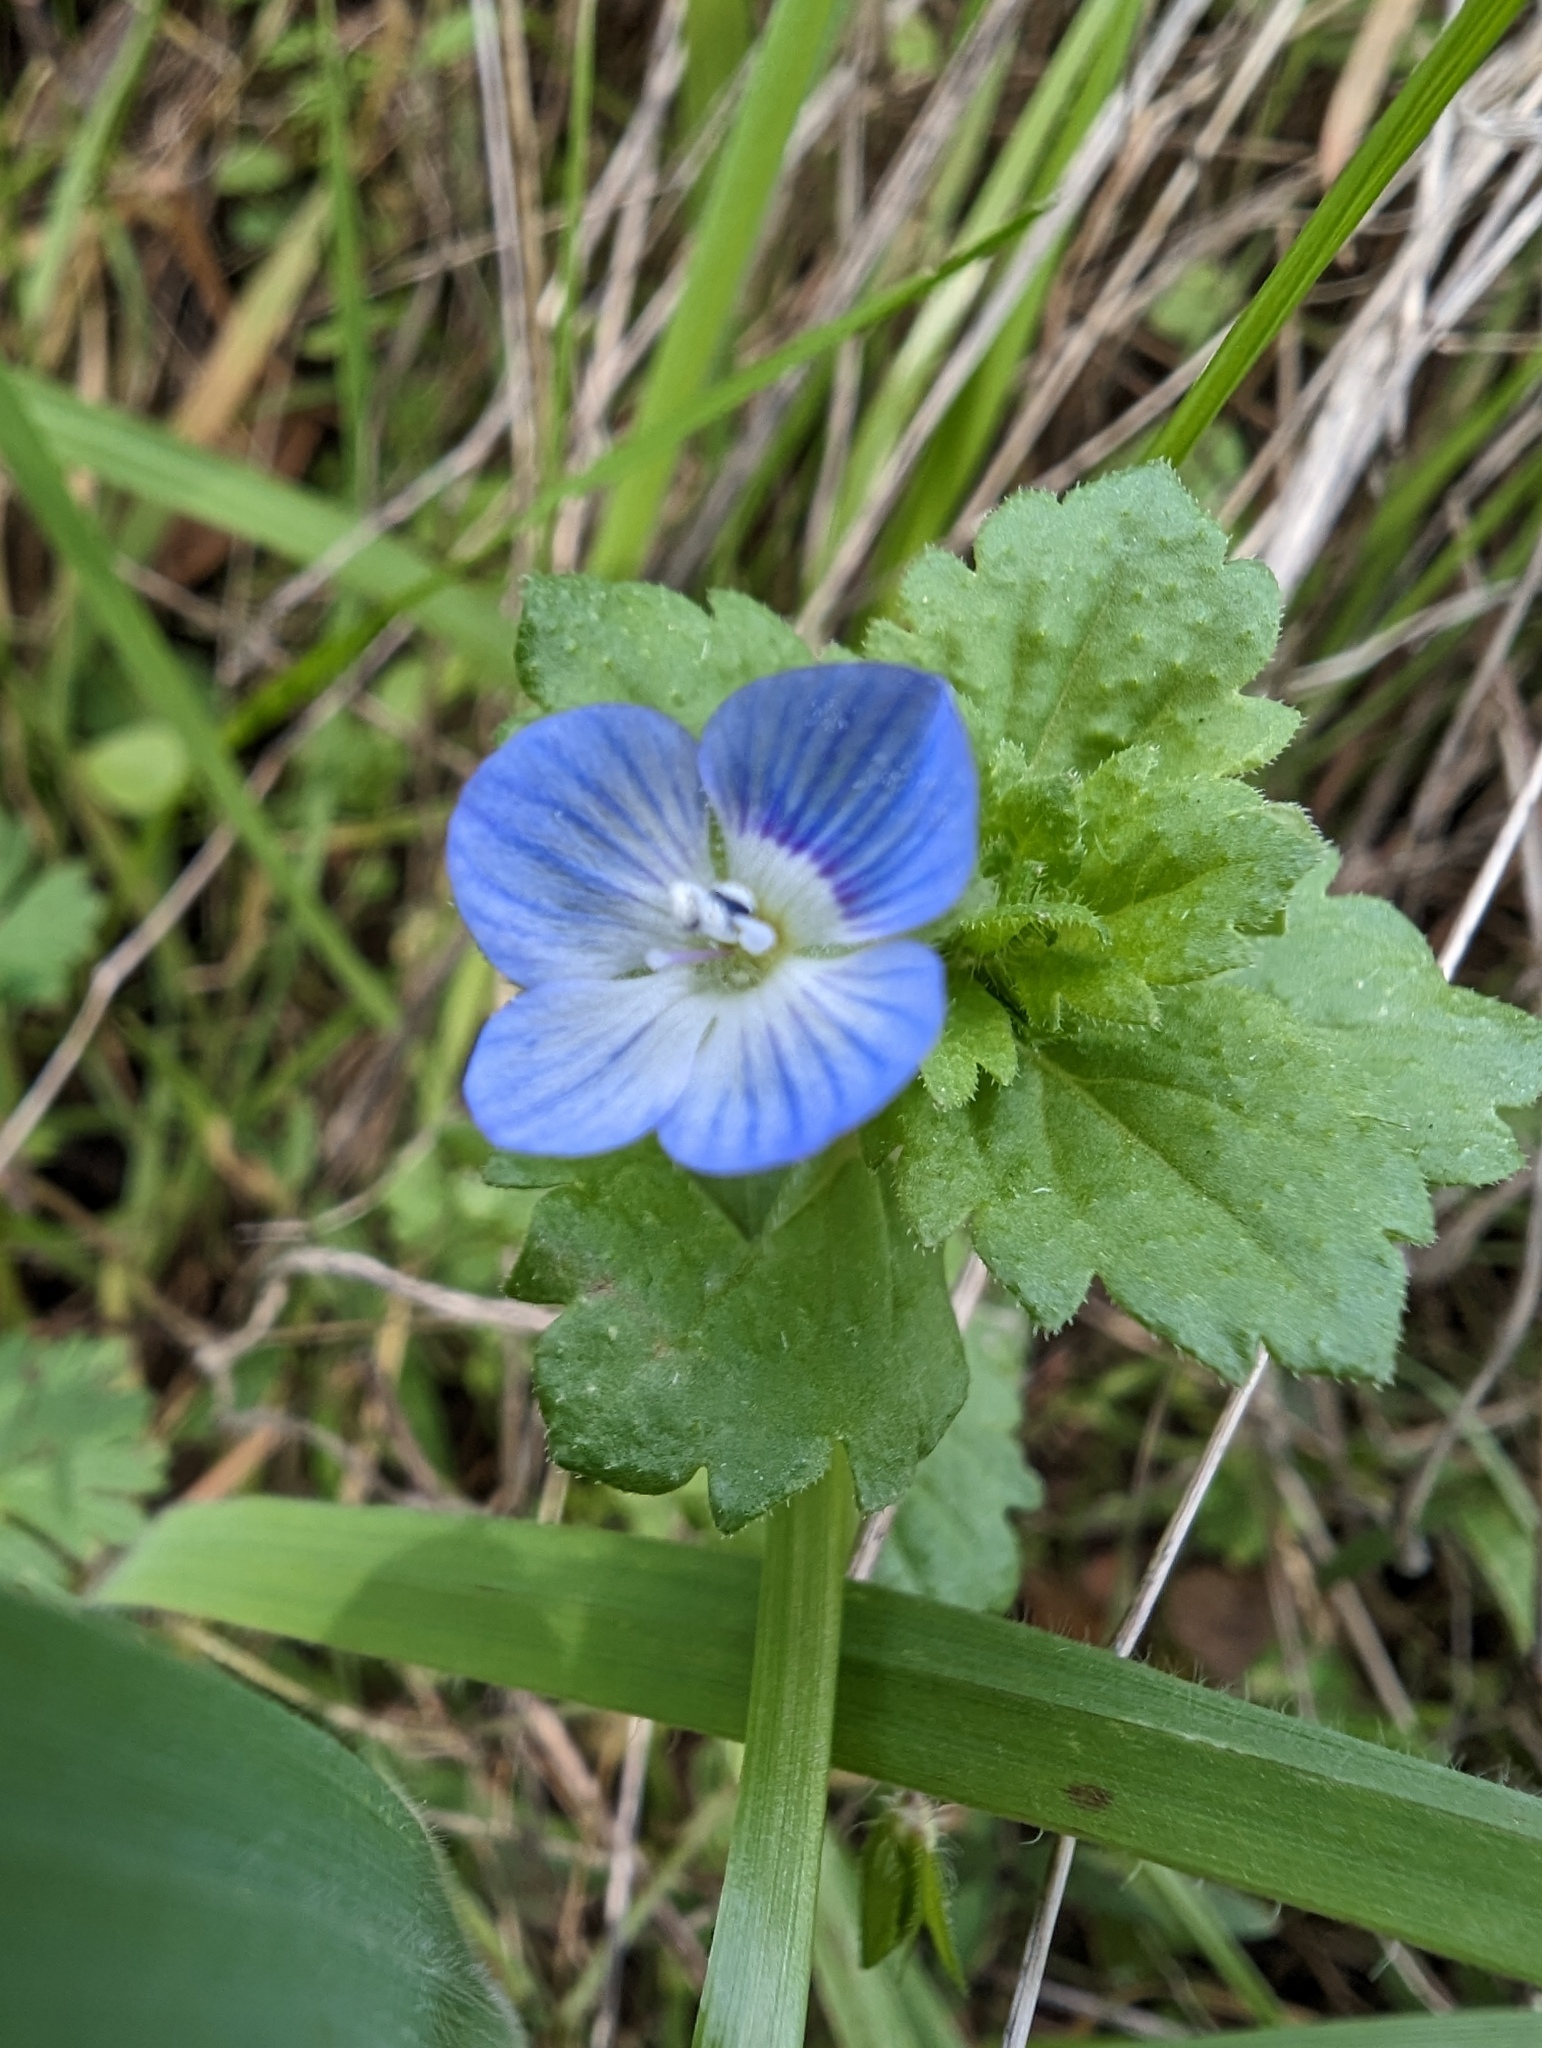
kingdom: Plantae
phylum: Tracheophyta
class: Magnoliopsida
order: Lamiales
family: Plantaginaceae
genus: Veronica
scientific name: Veronica persica
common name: Common field-speedwell
